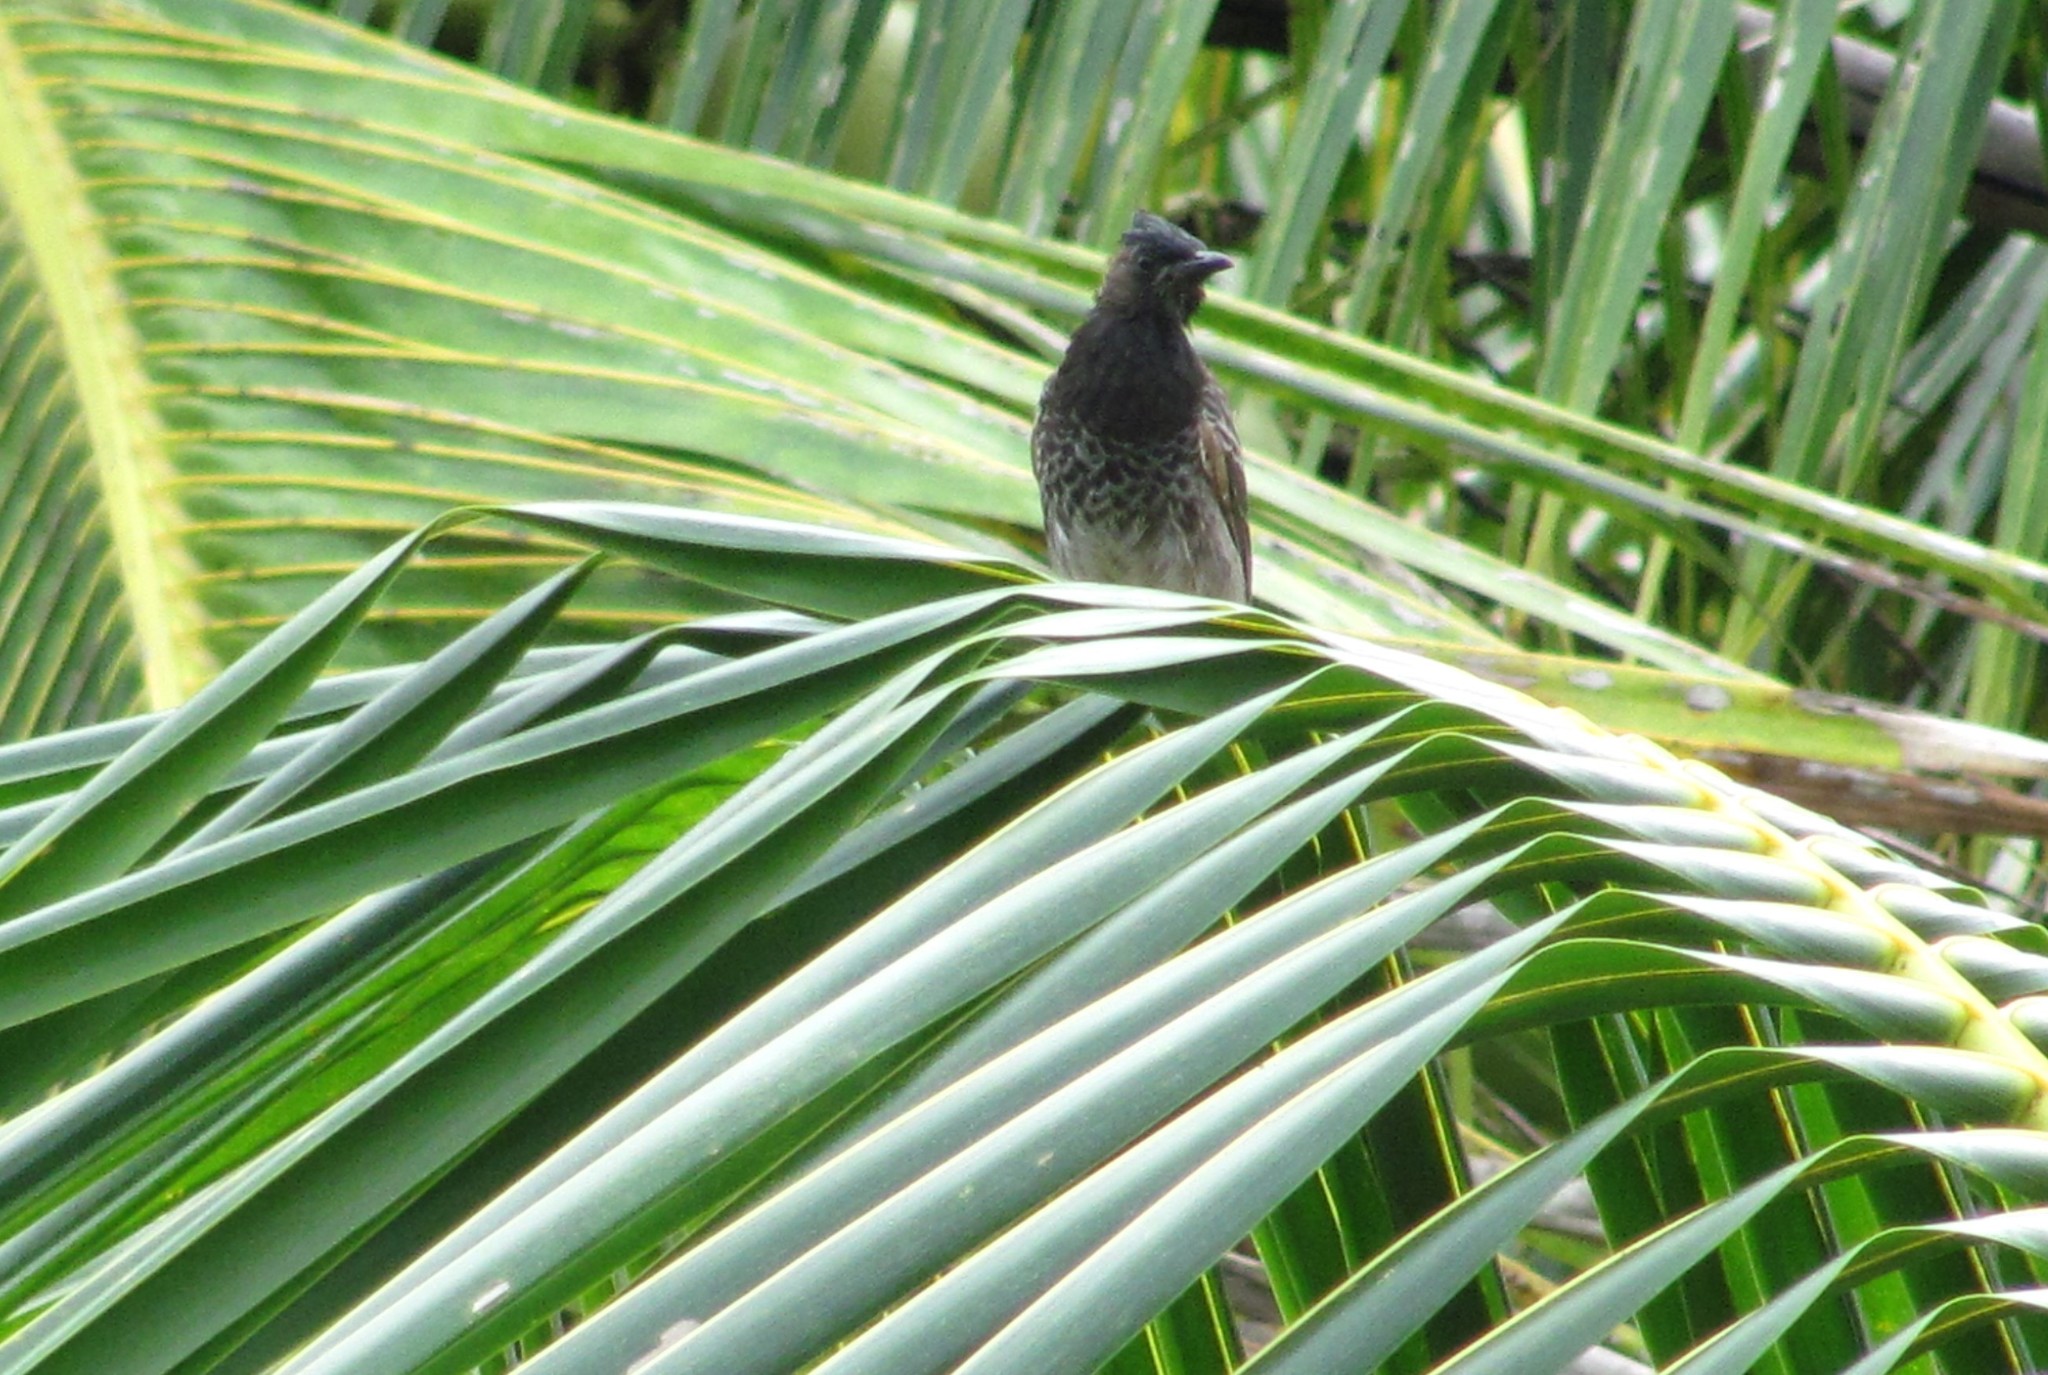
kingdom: Animalia
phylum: Chordata
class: Aves
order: Passeriformes
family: Pycnonotidae
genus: Pycnonotus
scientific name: Pycnonotus cafer
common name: Red-vented bulbul
